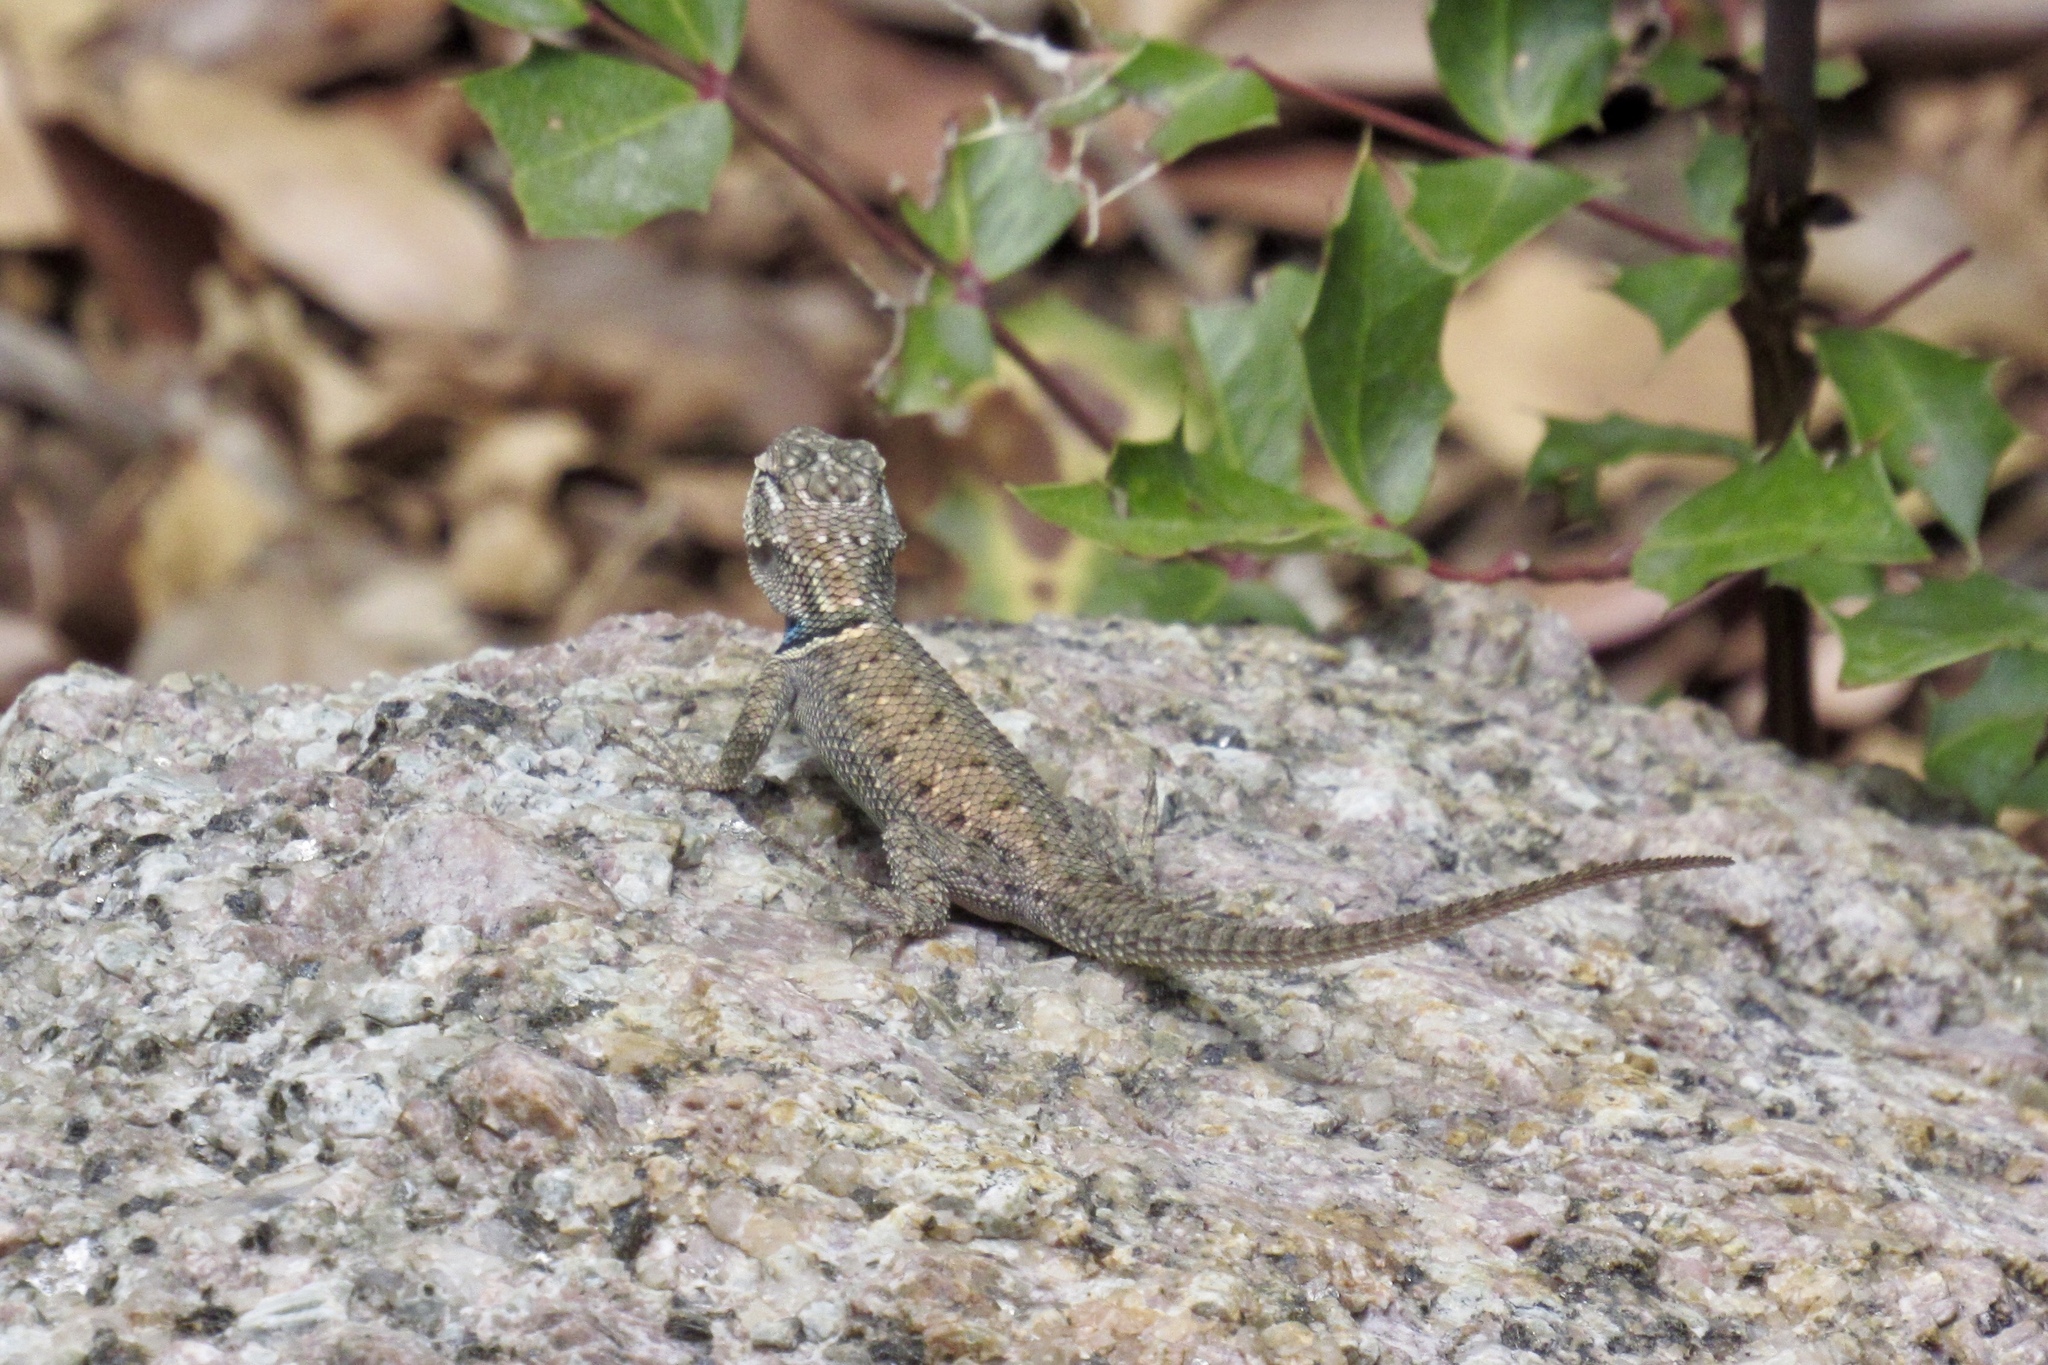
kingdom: Animalia
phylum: Chordata
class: Squamata
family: Phrynosomatidae
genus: Sceloporus
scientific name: Sceloporus jarrovii
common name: Yarrow's spiny lizard
